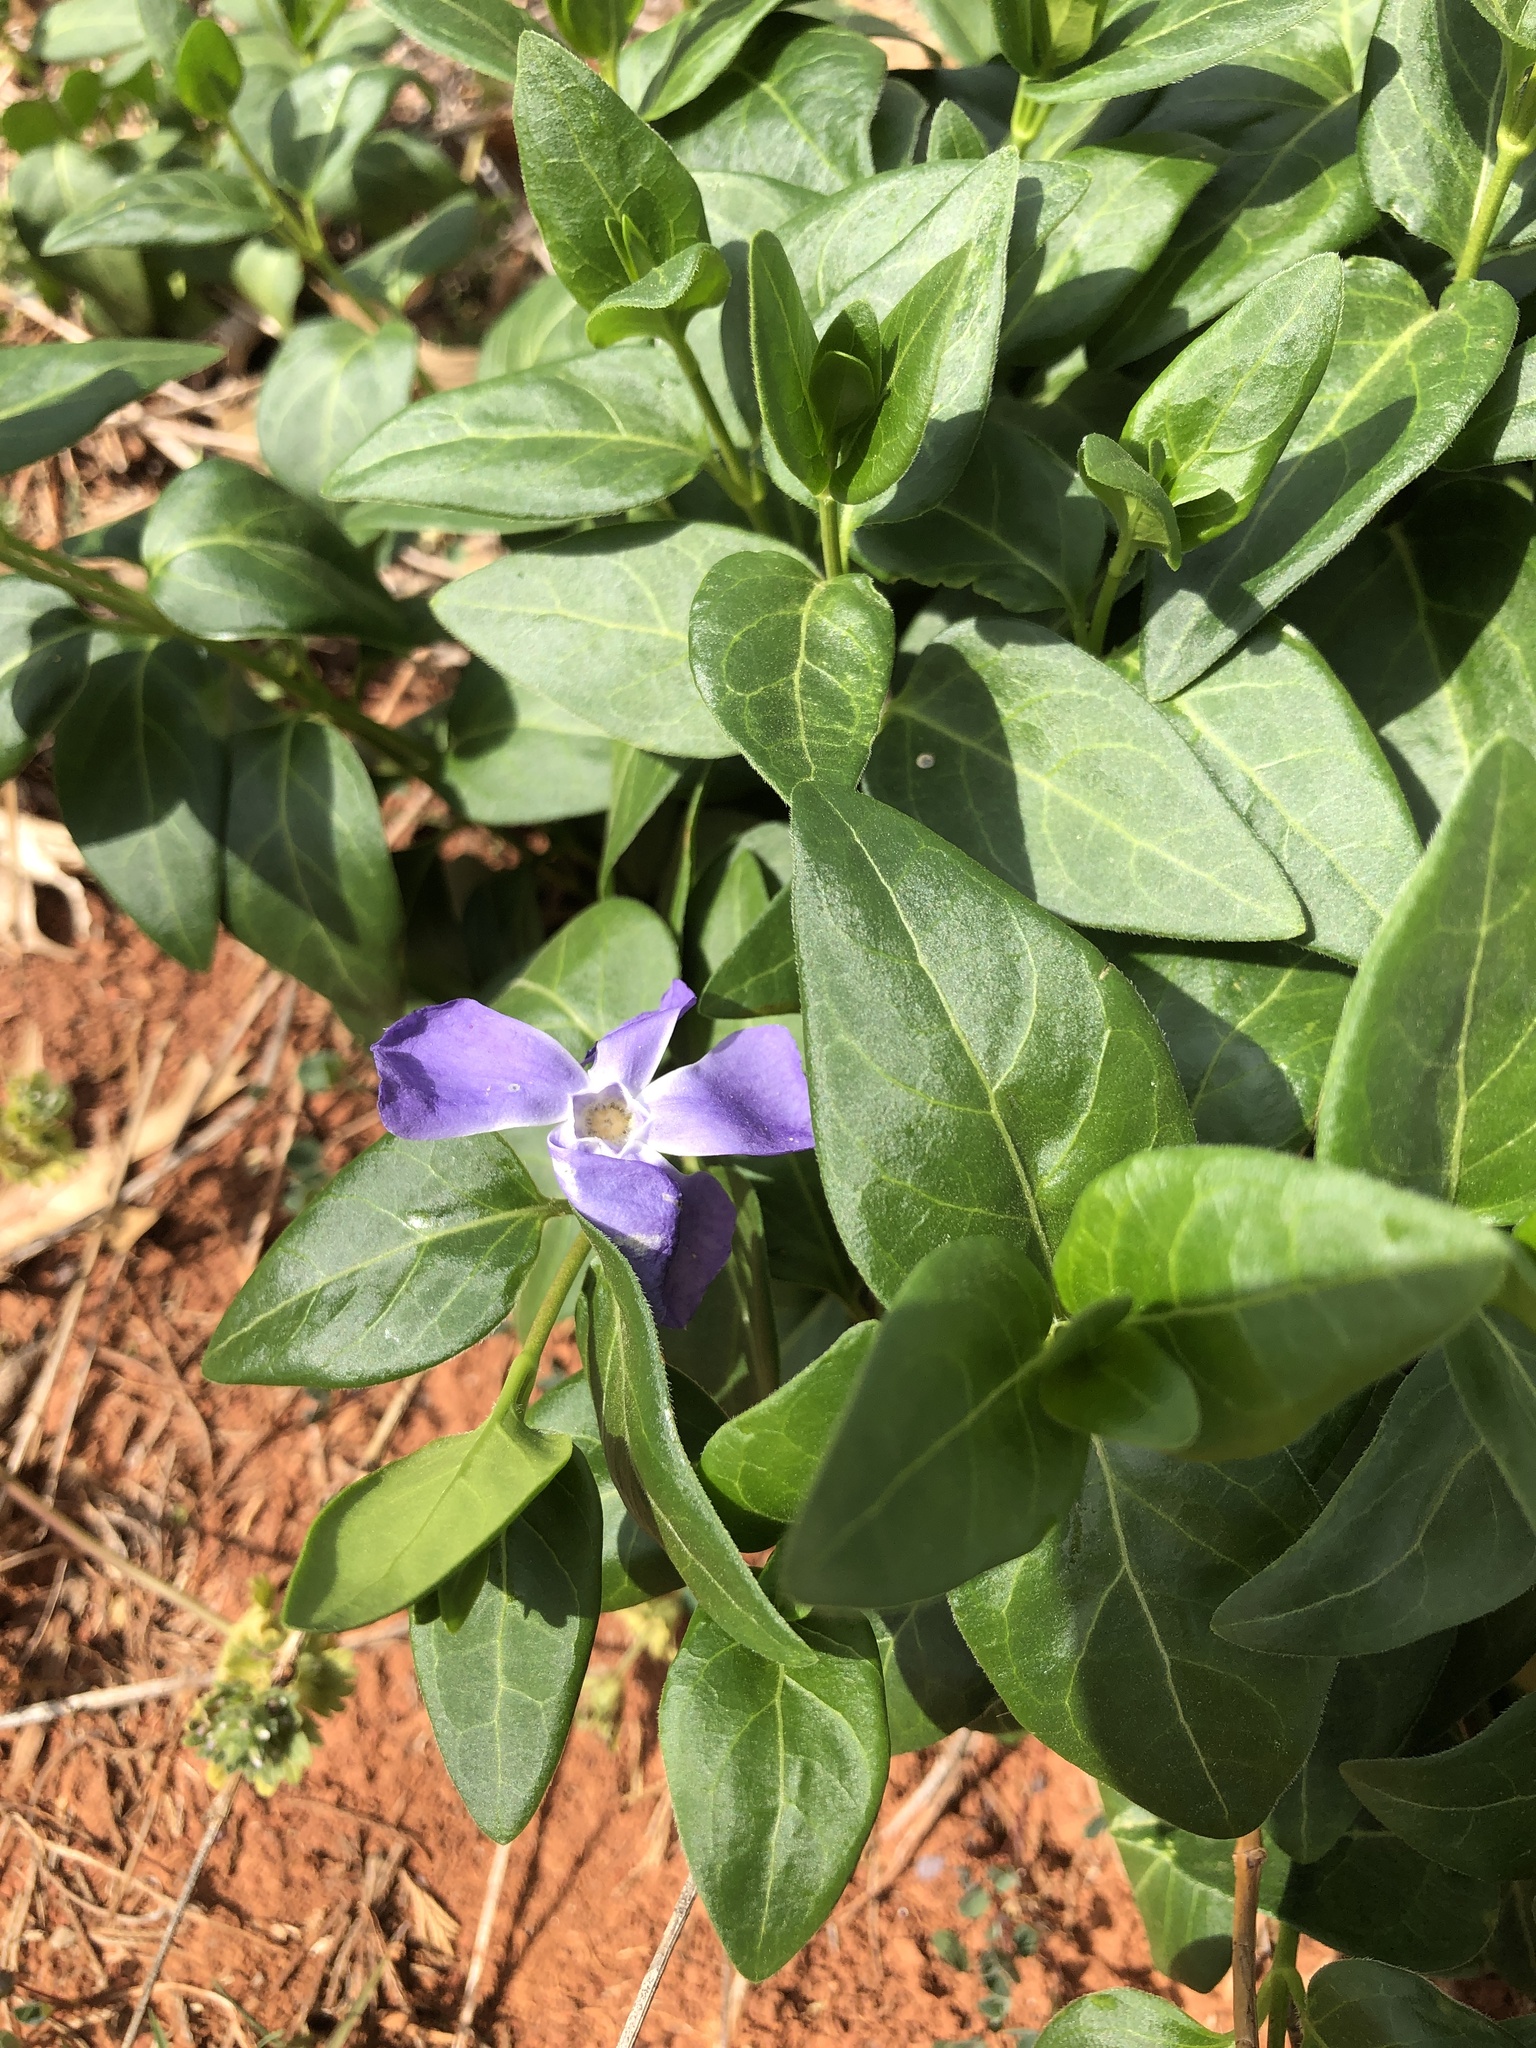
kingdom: Plantae
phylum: Tracheophyta
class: Magnoliopsida
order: Gentianales
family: Apocynaceae
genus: Vinca
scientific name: Vinca major
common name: Greater periwinkle
